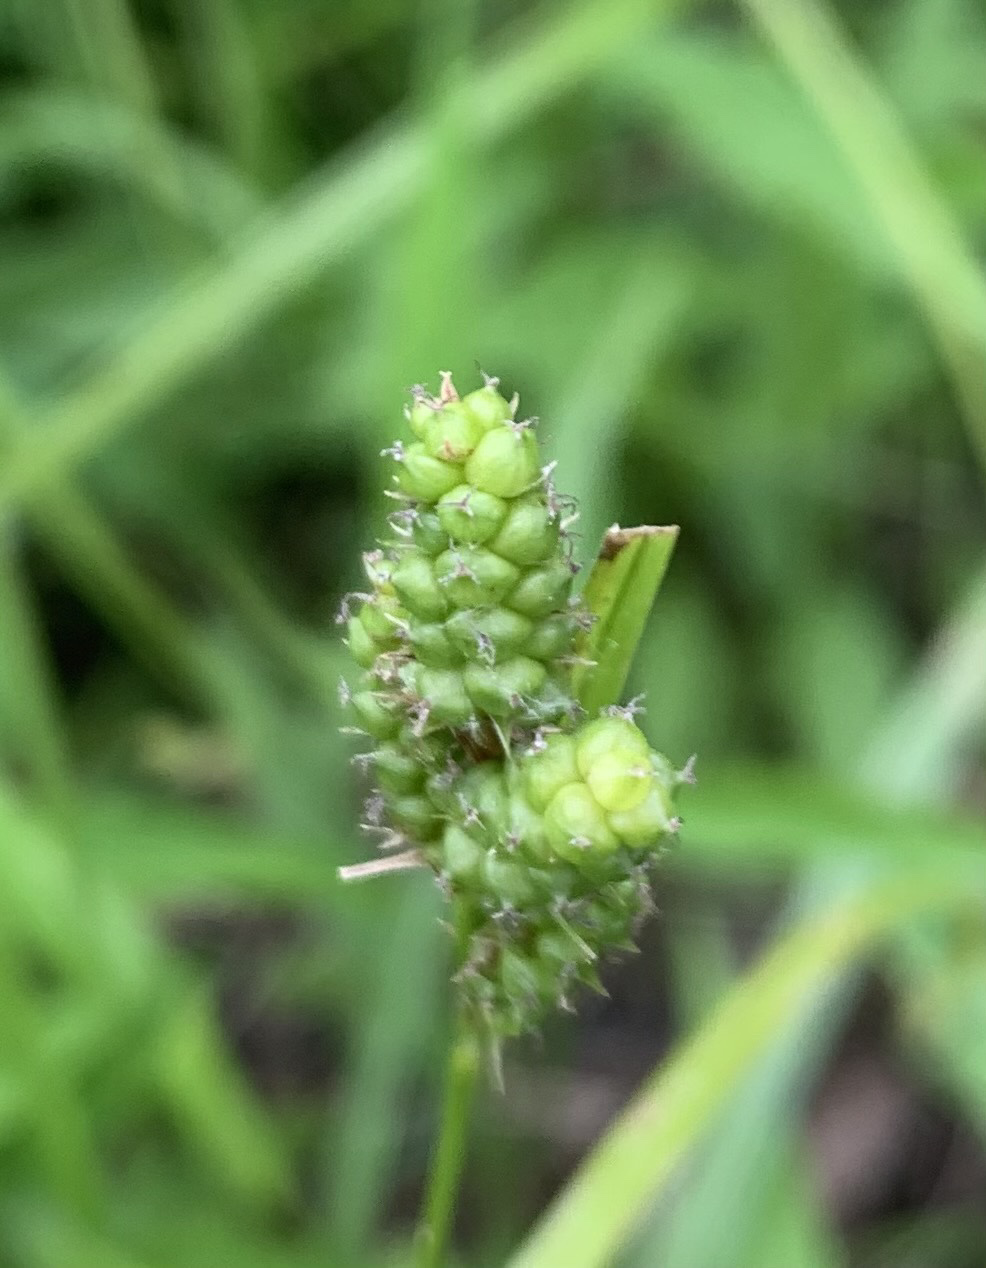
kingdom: Plantae
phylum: Tracheophyta
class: Liliopsida
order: Poales
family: Cyperaceae
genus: Carex
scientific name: Carex caroliniana
